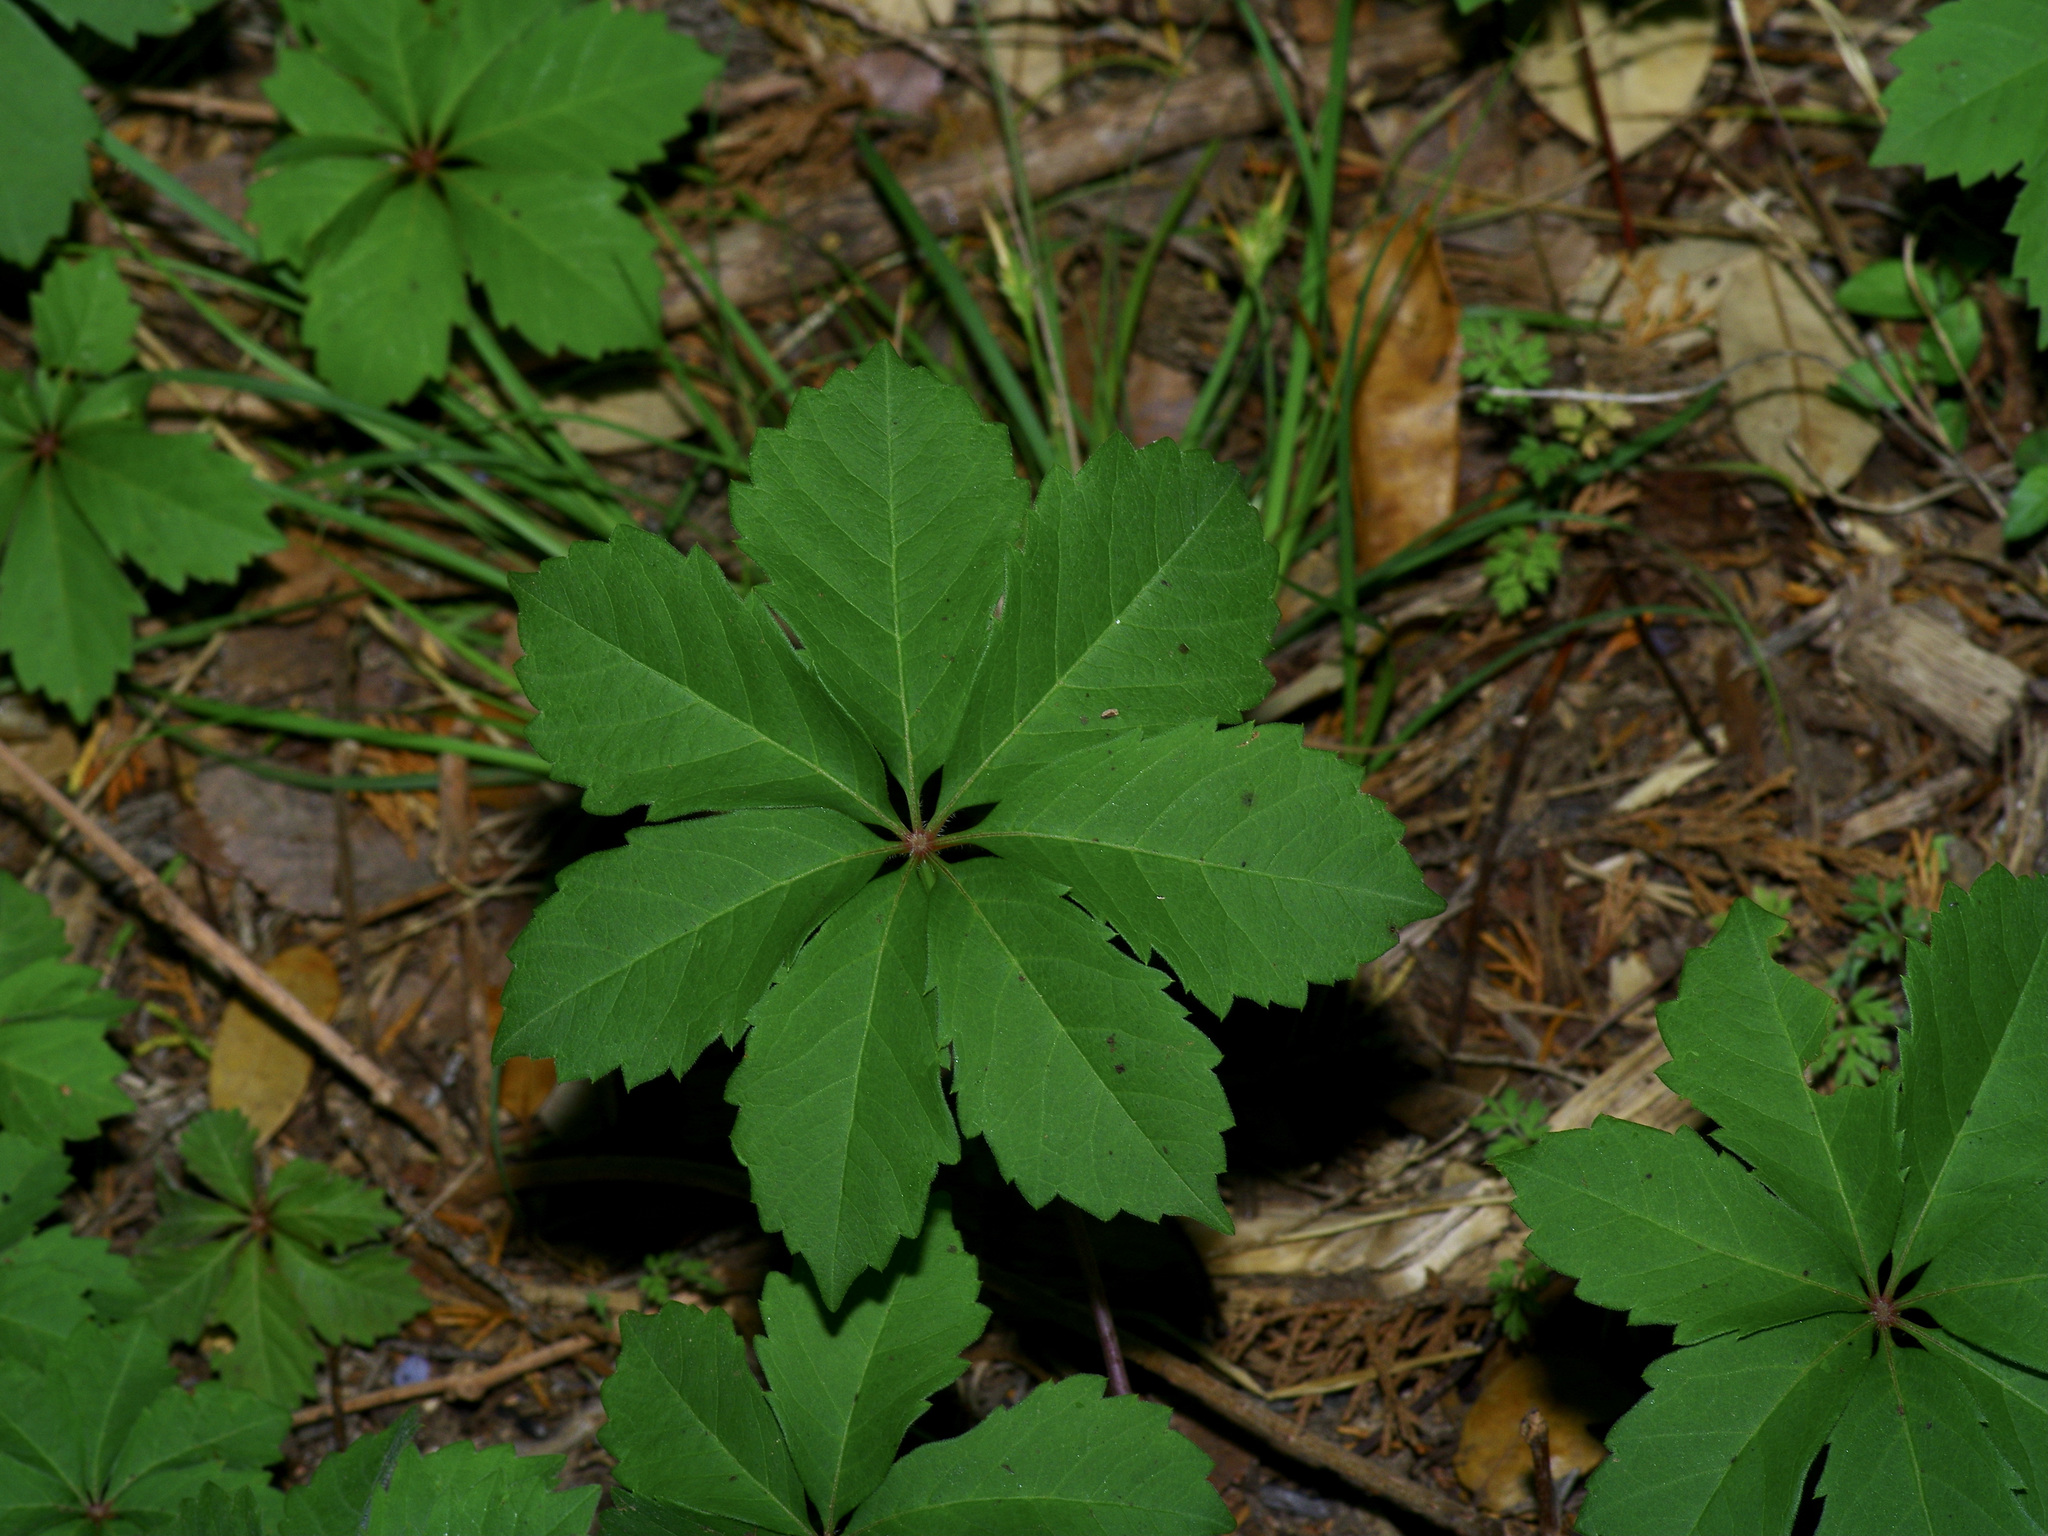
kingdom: Plantae
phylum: Tracheophyta
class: Magnoliopsida
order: Vitales
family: Vitaceae
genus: Parthenocissus
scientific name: Parthenocissus heptaphylla
